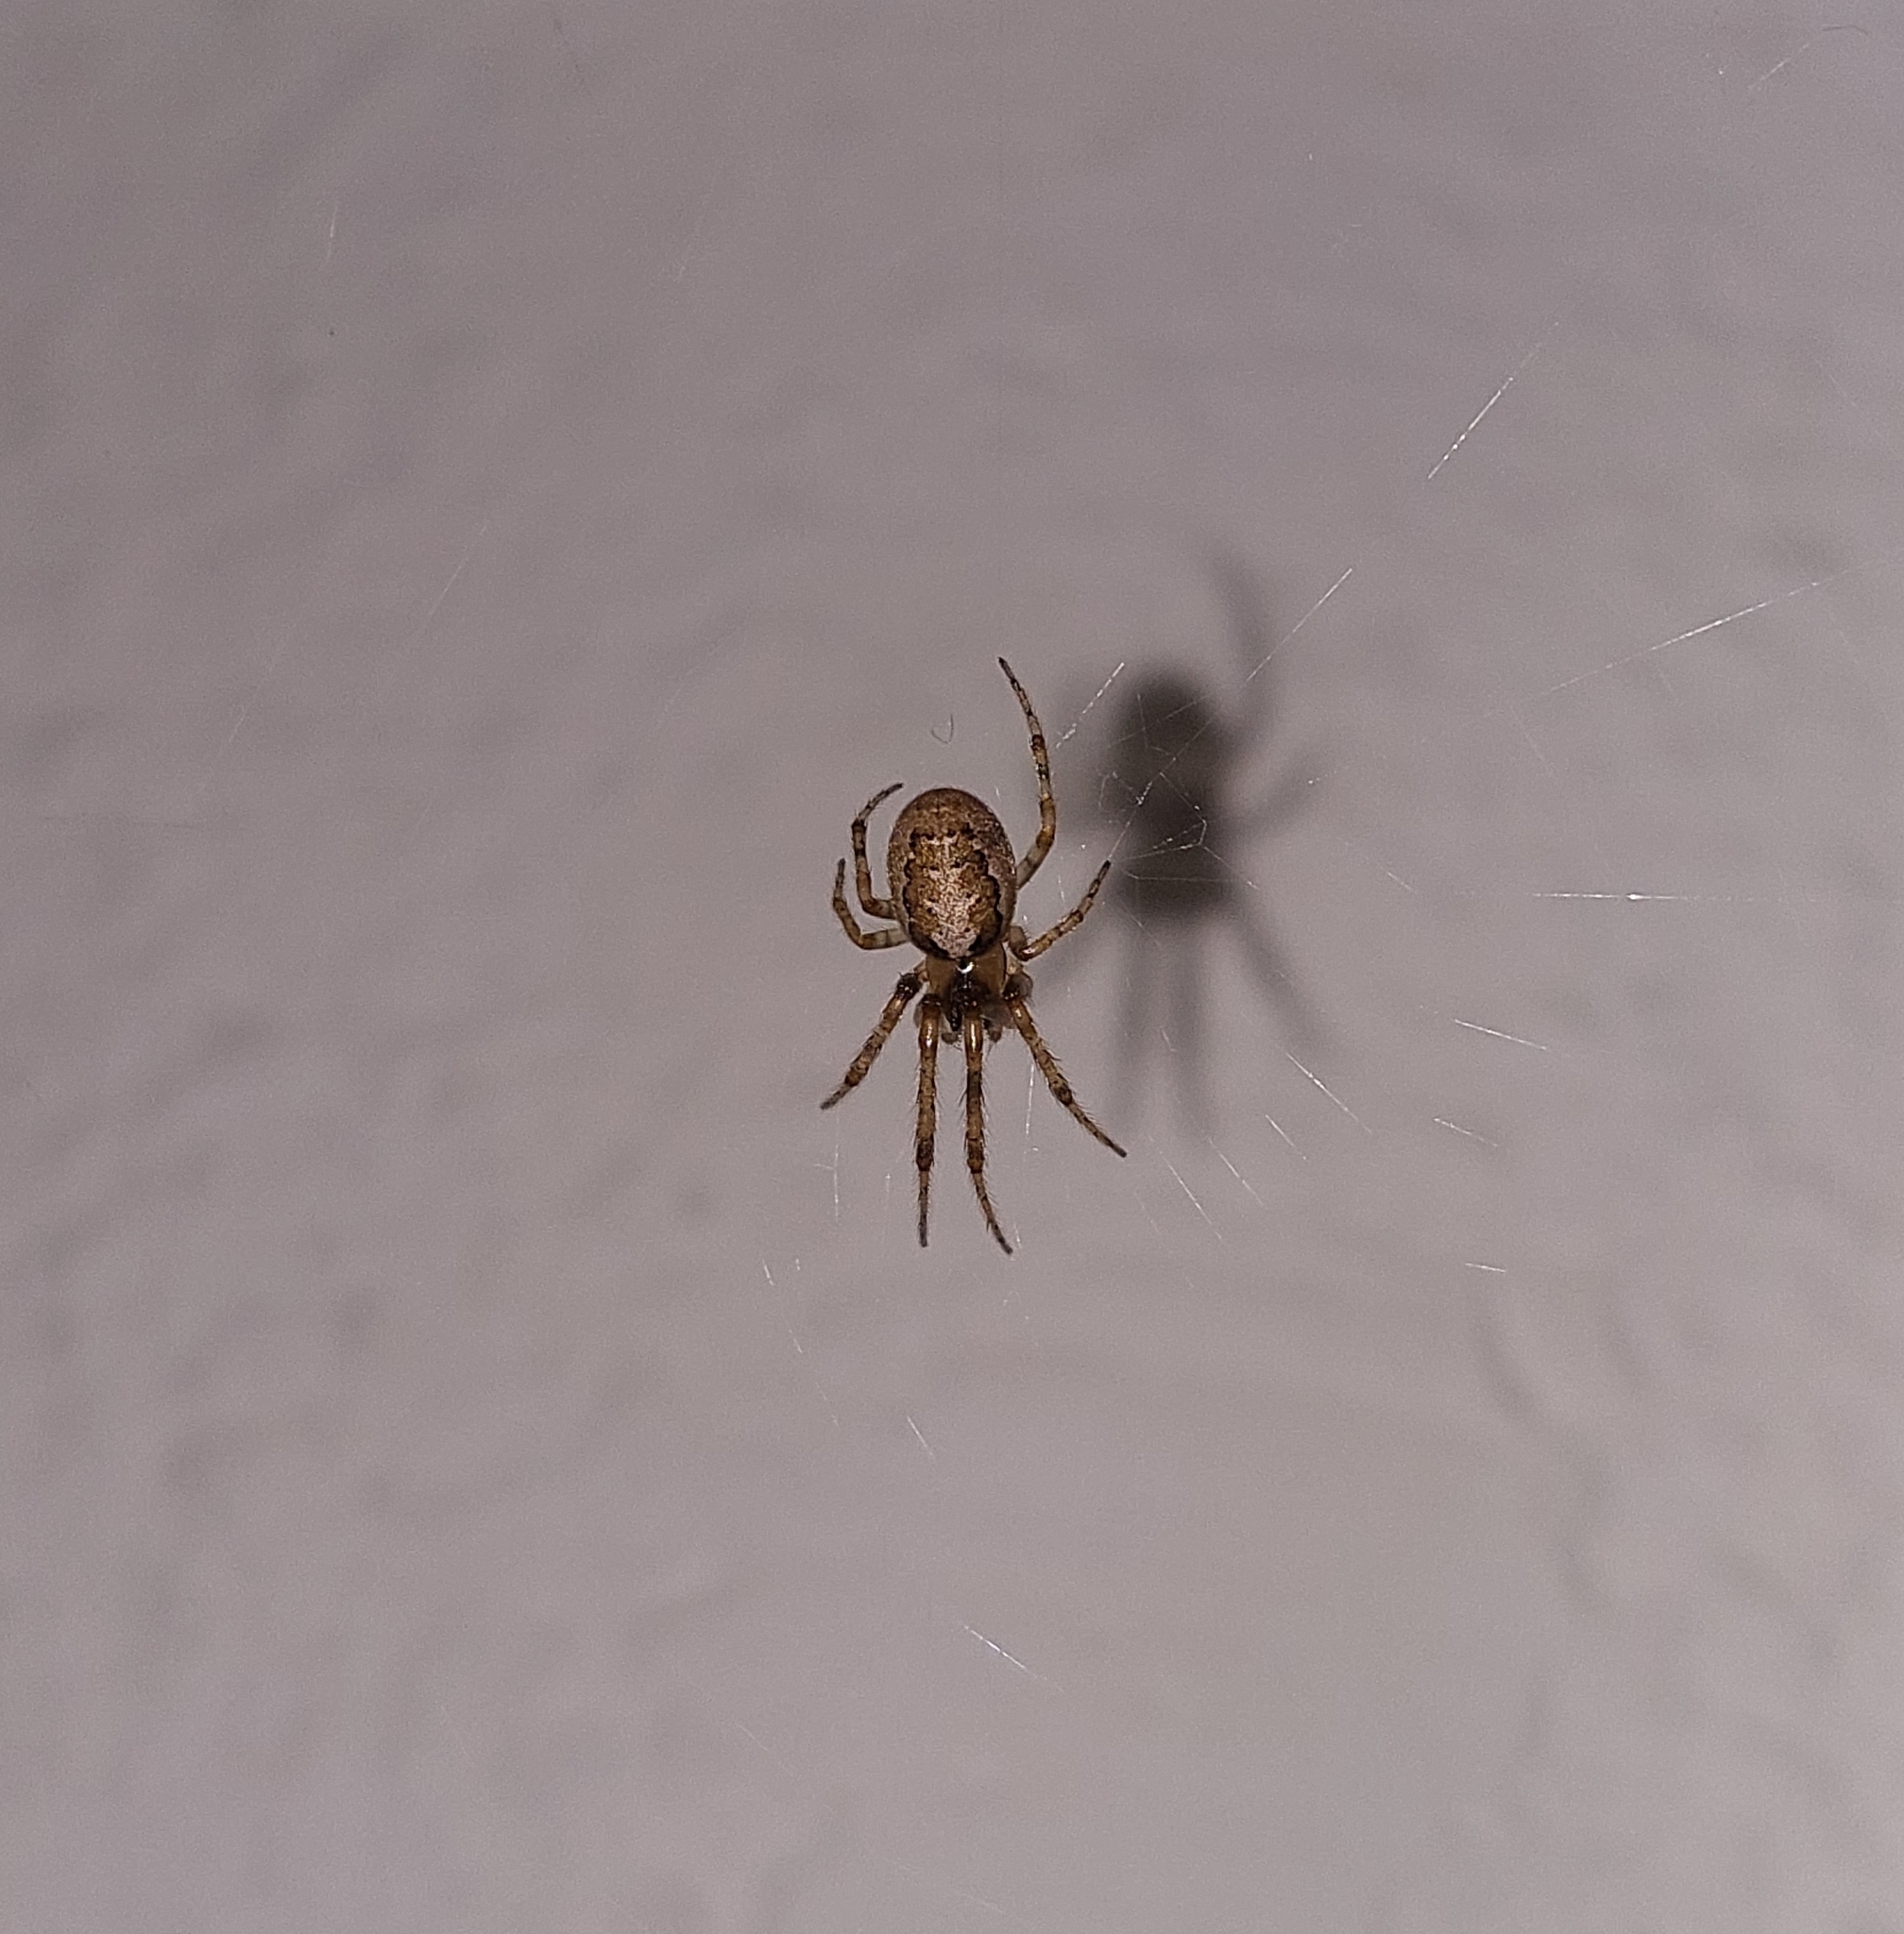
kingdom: Animalia
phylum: Arthropoda
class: Arachnida
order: Araneae
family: Araneidae
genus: Zygiella
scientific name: Zygiella x-notata
